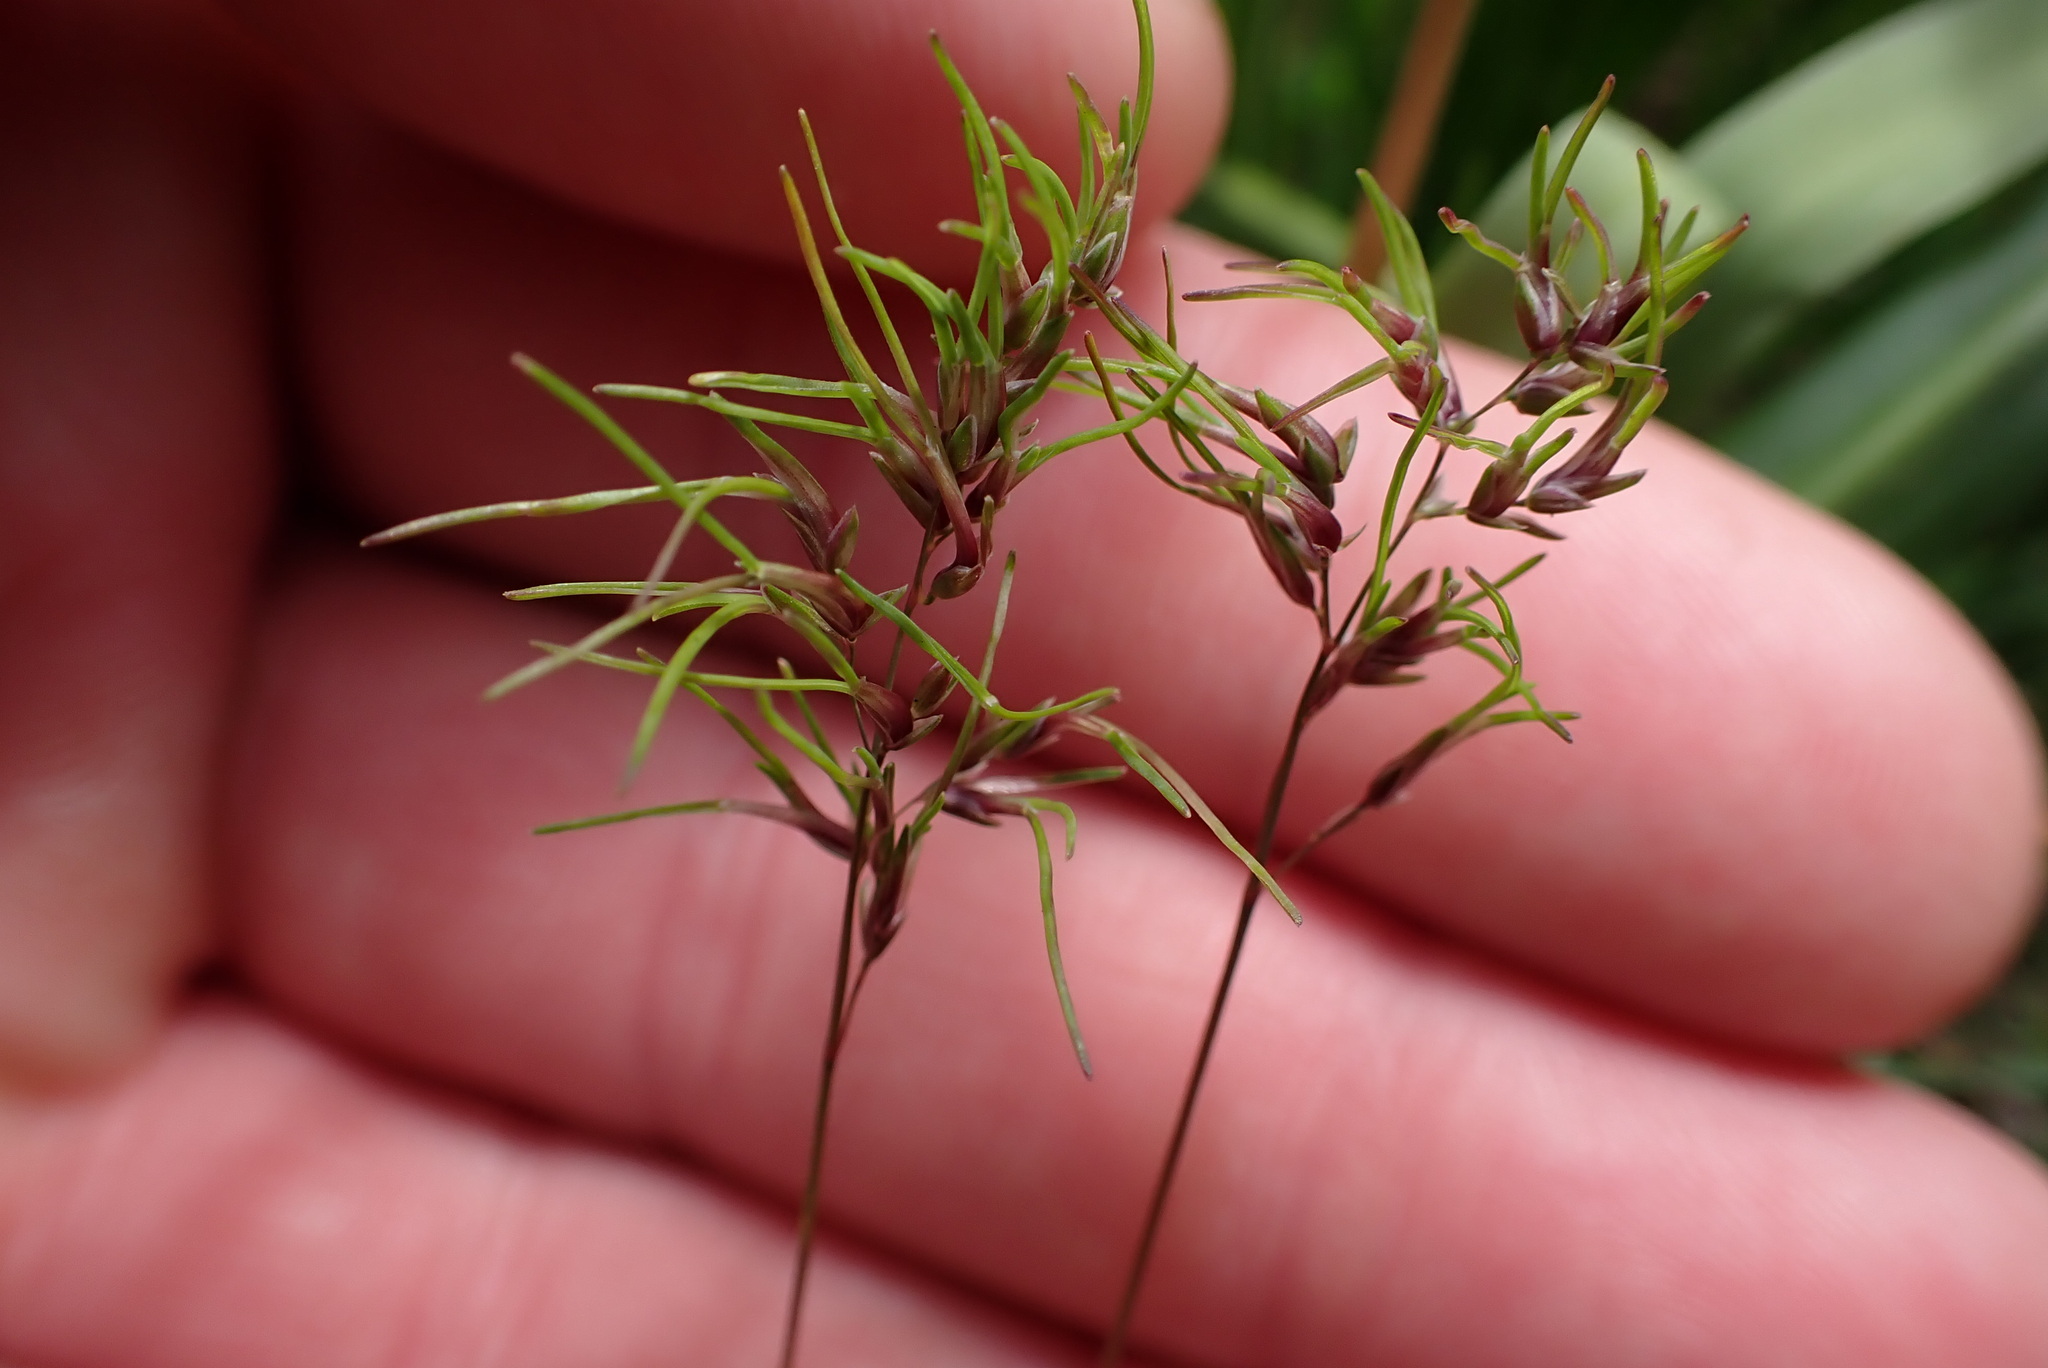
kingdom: Plantae
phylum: Tracheophyta
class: Liliopsida
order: Poales
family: Poaceae
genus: Poa
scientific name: Poa bulbosa
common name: Bulbous bluegrass
